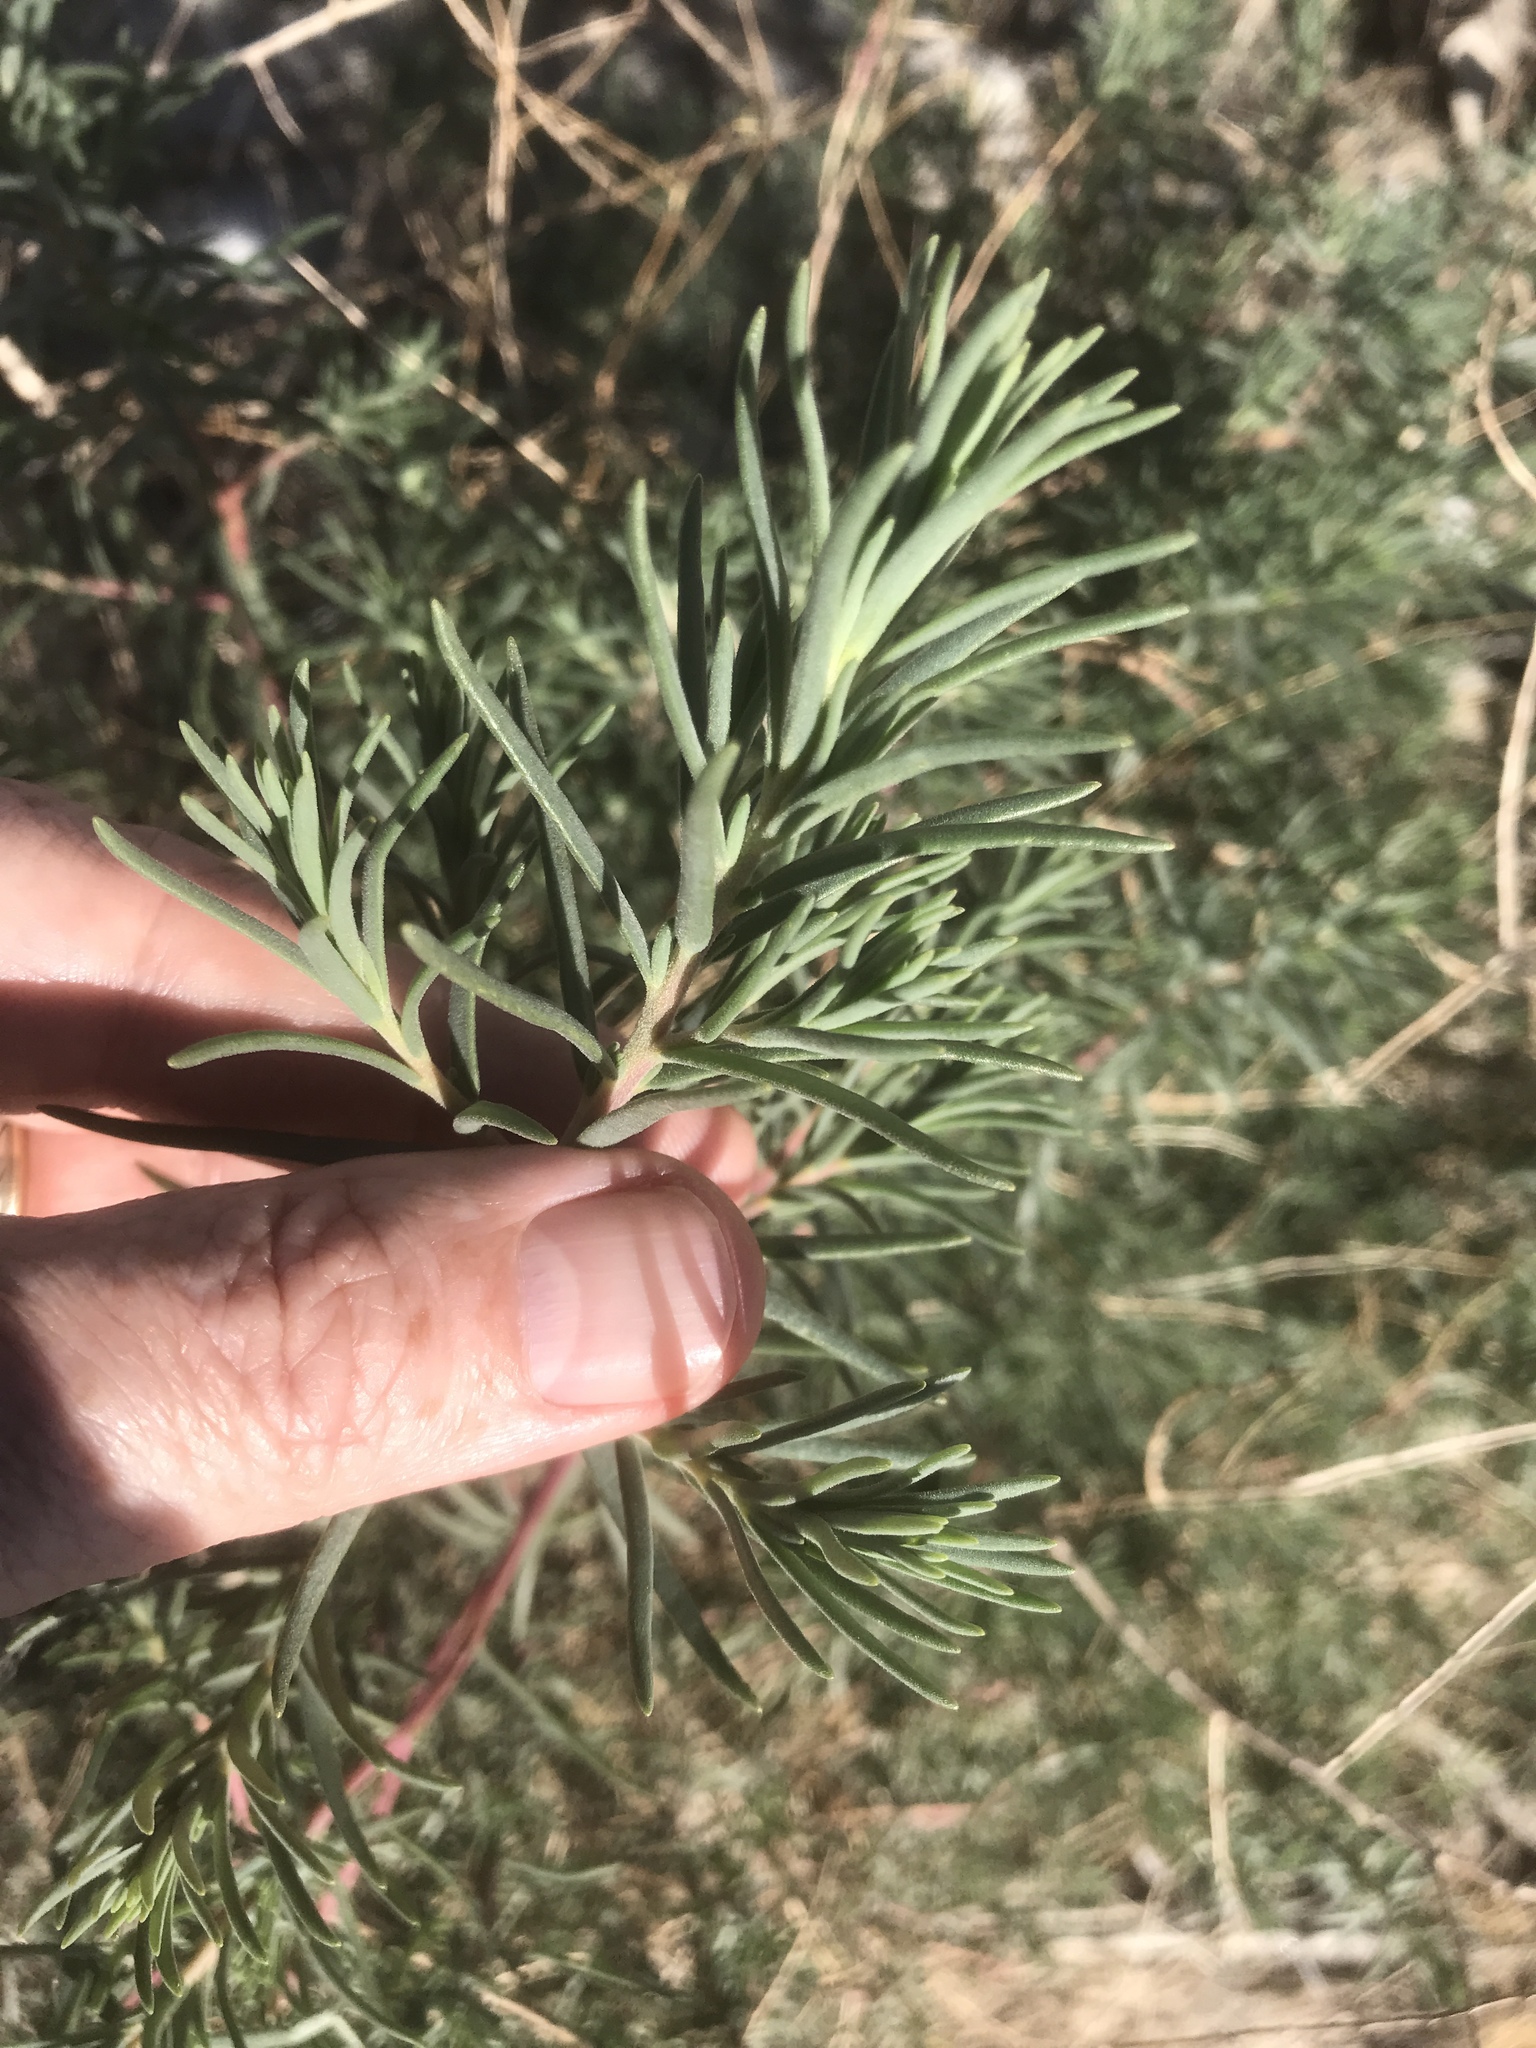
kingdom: Plantae
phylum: Tracheophyta
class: Magnoliopsida
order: Caryophyllales
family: Amaranthaceae
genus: Suaeda
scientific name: Suaeda nigra
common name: Bush seepweed
